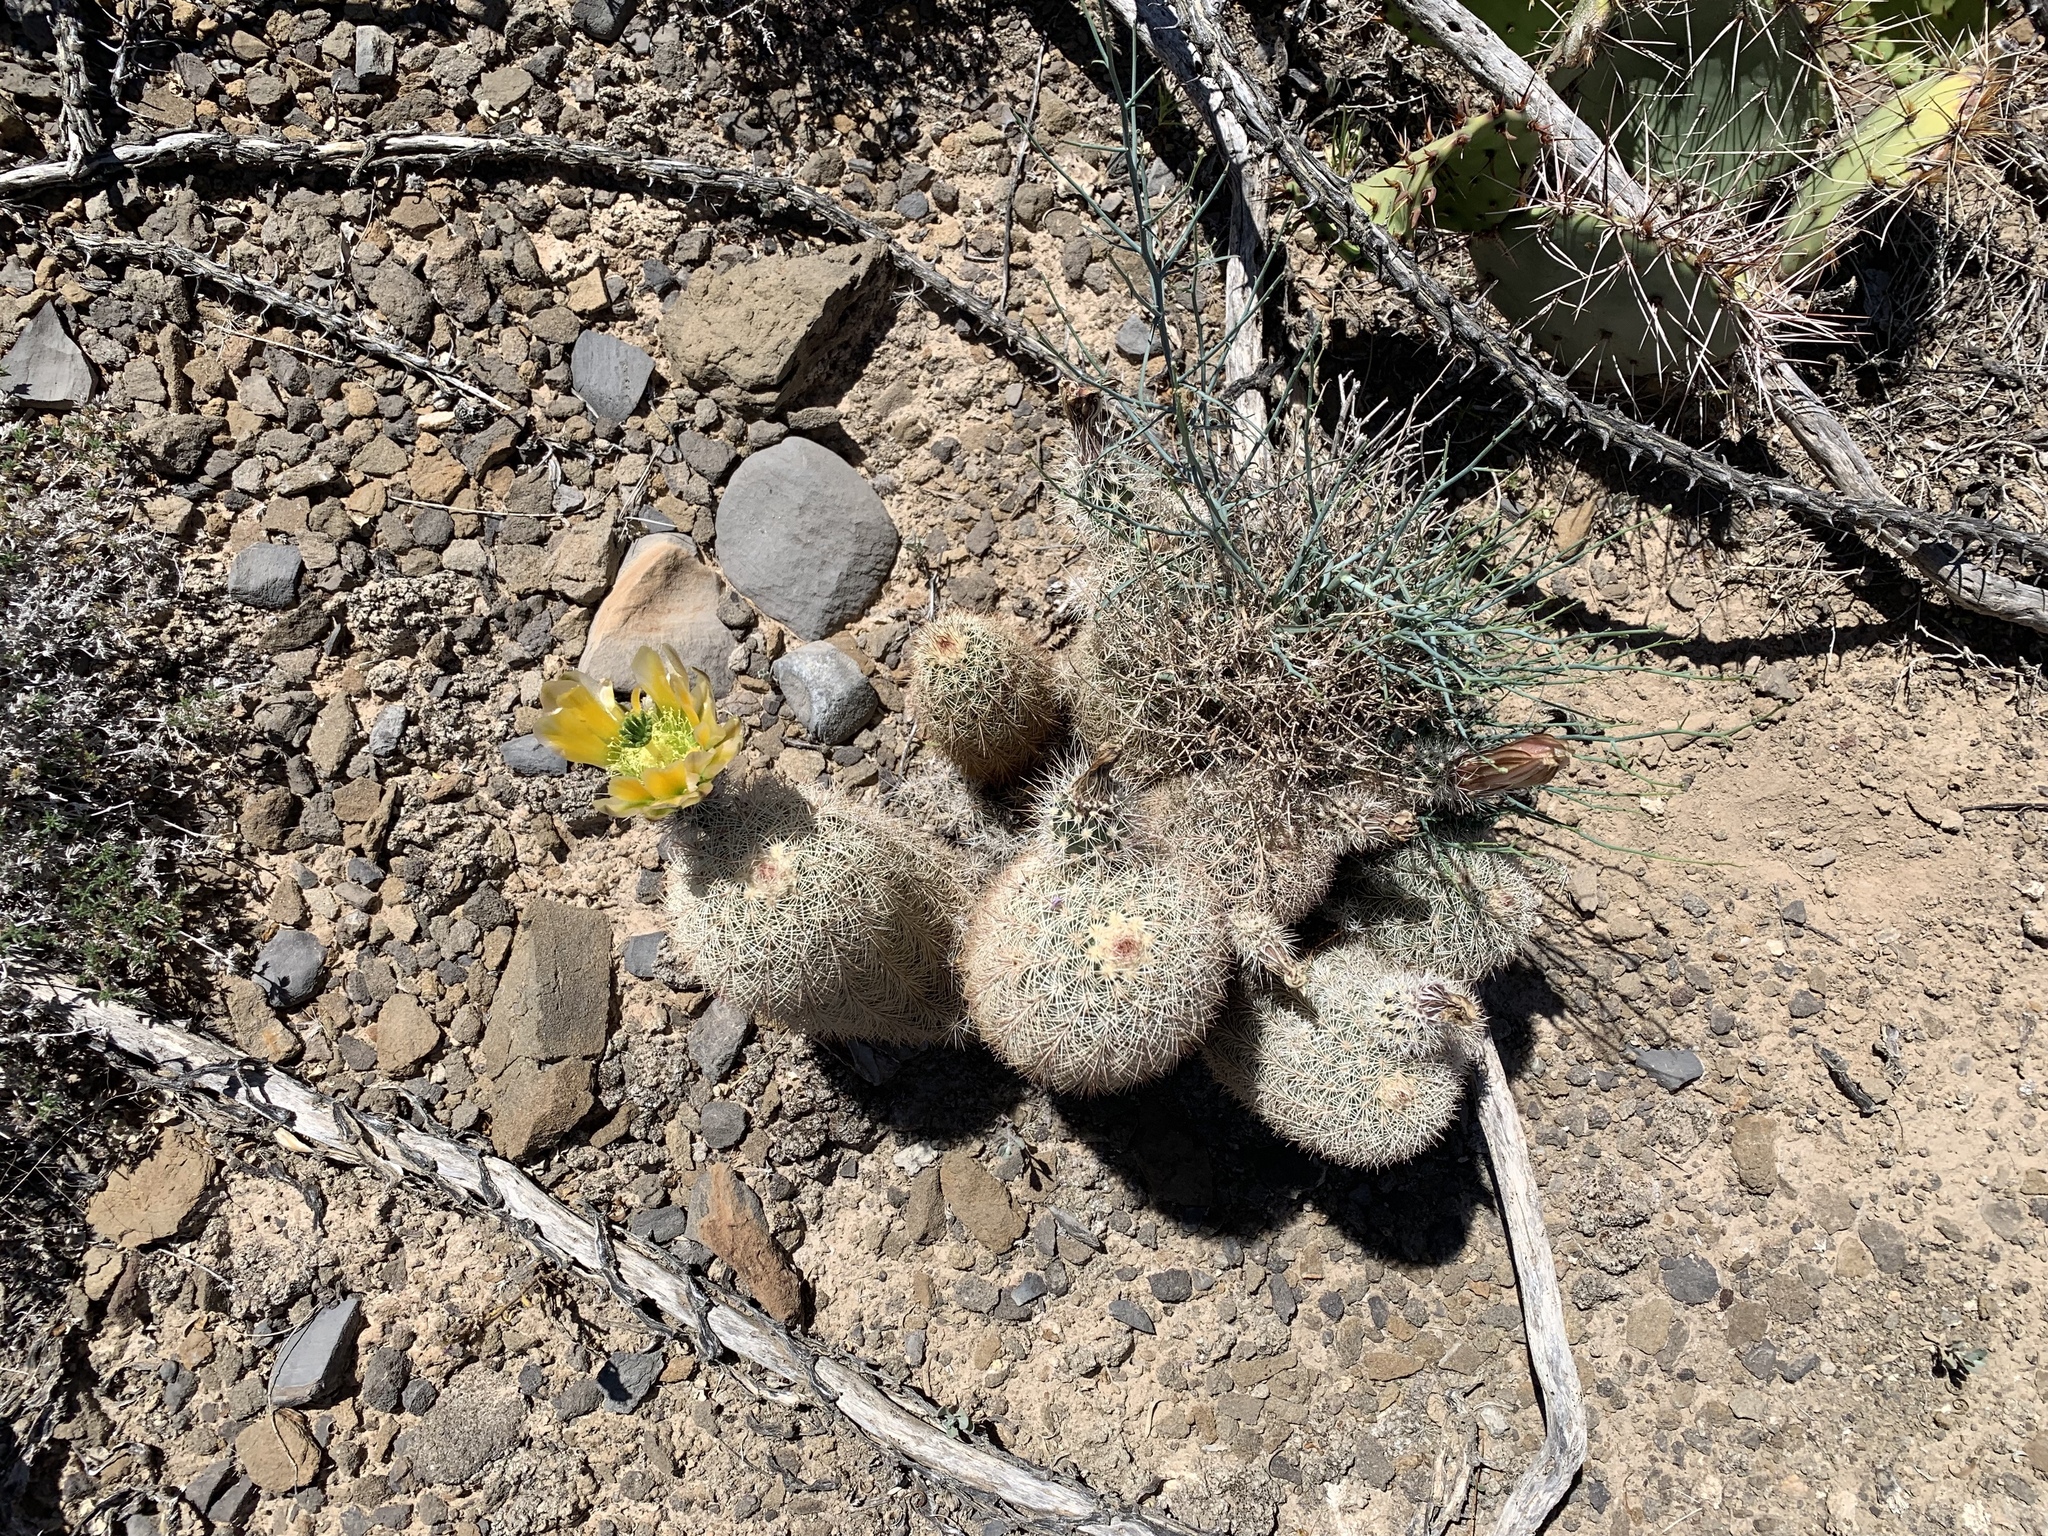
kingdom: Plantae
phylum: Tracheophyta
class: Magnoliopsida
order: Caryophyllales
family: Cactaceae
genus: Echinocereus
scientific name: Echinocereus dasyacanthus
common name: Spiny hedgehog cactus
